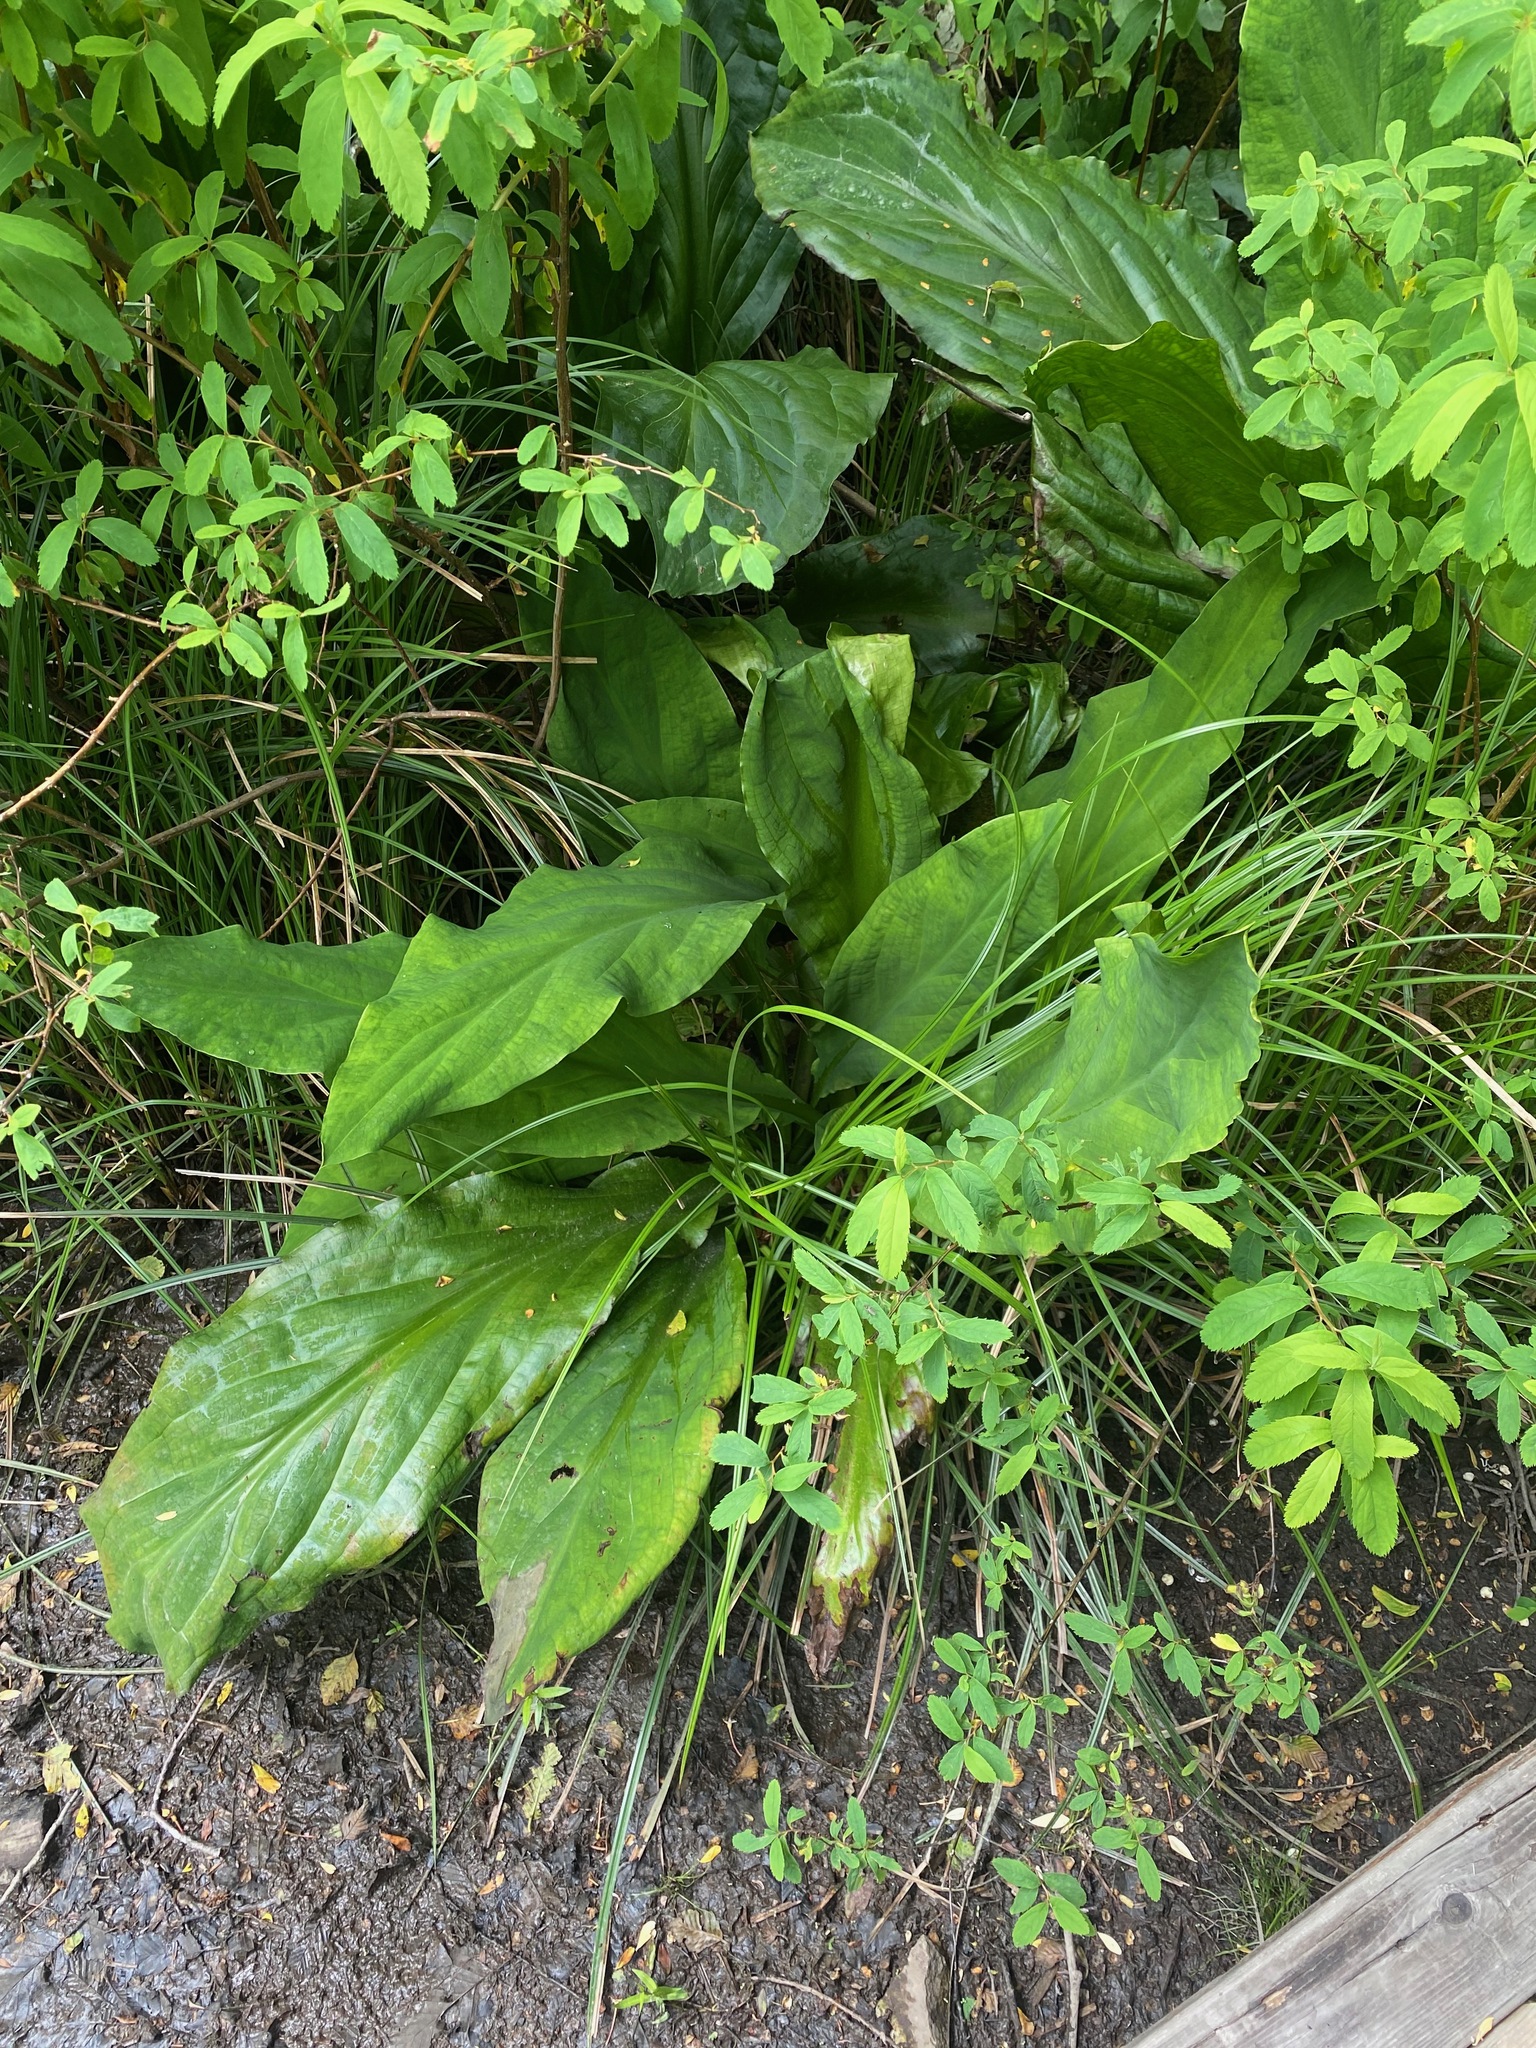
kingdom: Plantae
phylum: Tracheophyta
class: Liliopsida
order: Alismatales
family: Araceae
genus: Lysichiton
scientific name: Lysichiton americanus
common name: American skunk cabbage
